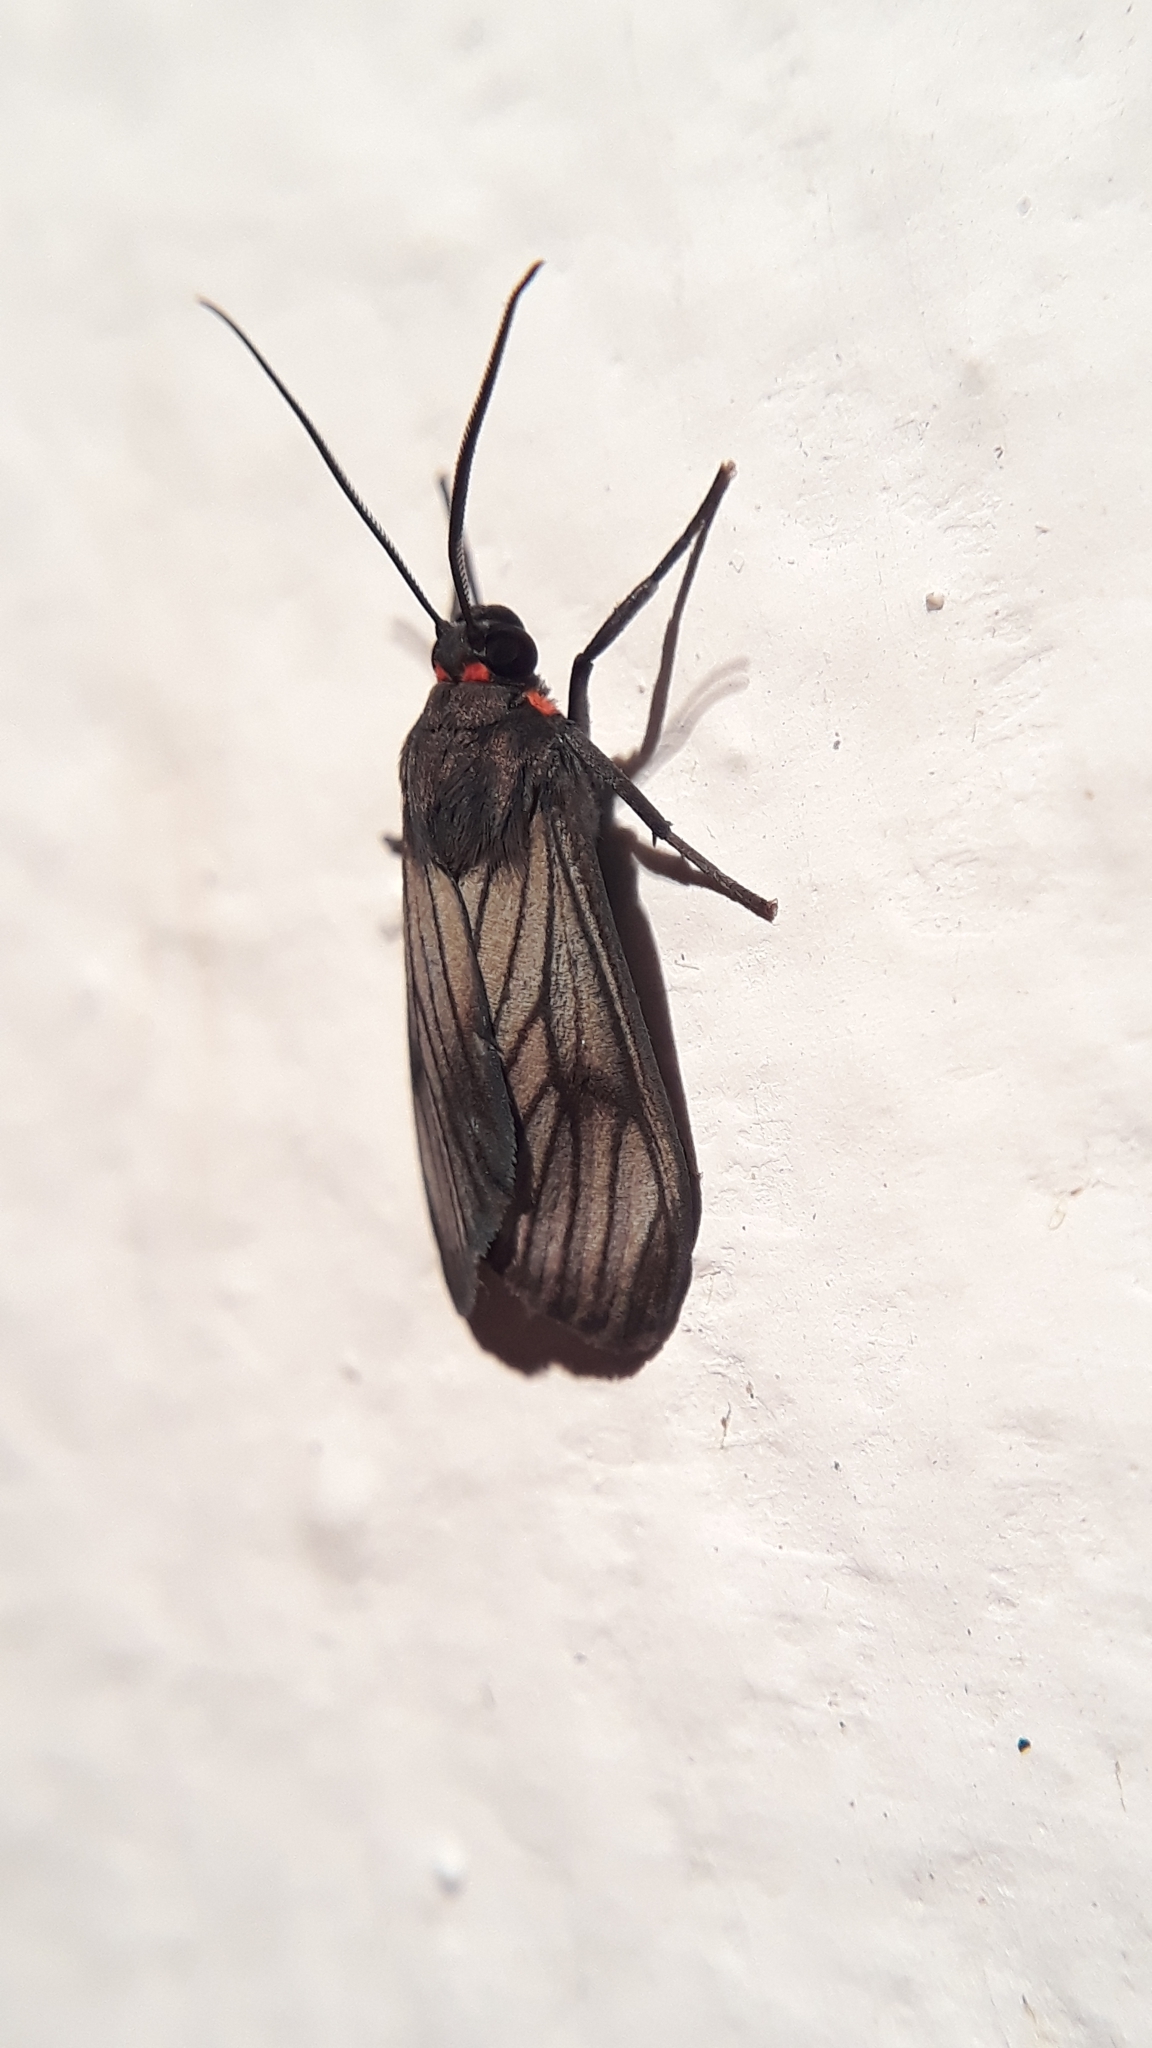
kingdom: Animalia
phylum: Arthropoda
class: Insecta
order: Lepidoptera
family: Erebidae
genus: Episcepsis
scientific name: Episcepsis venata
